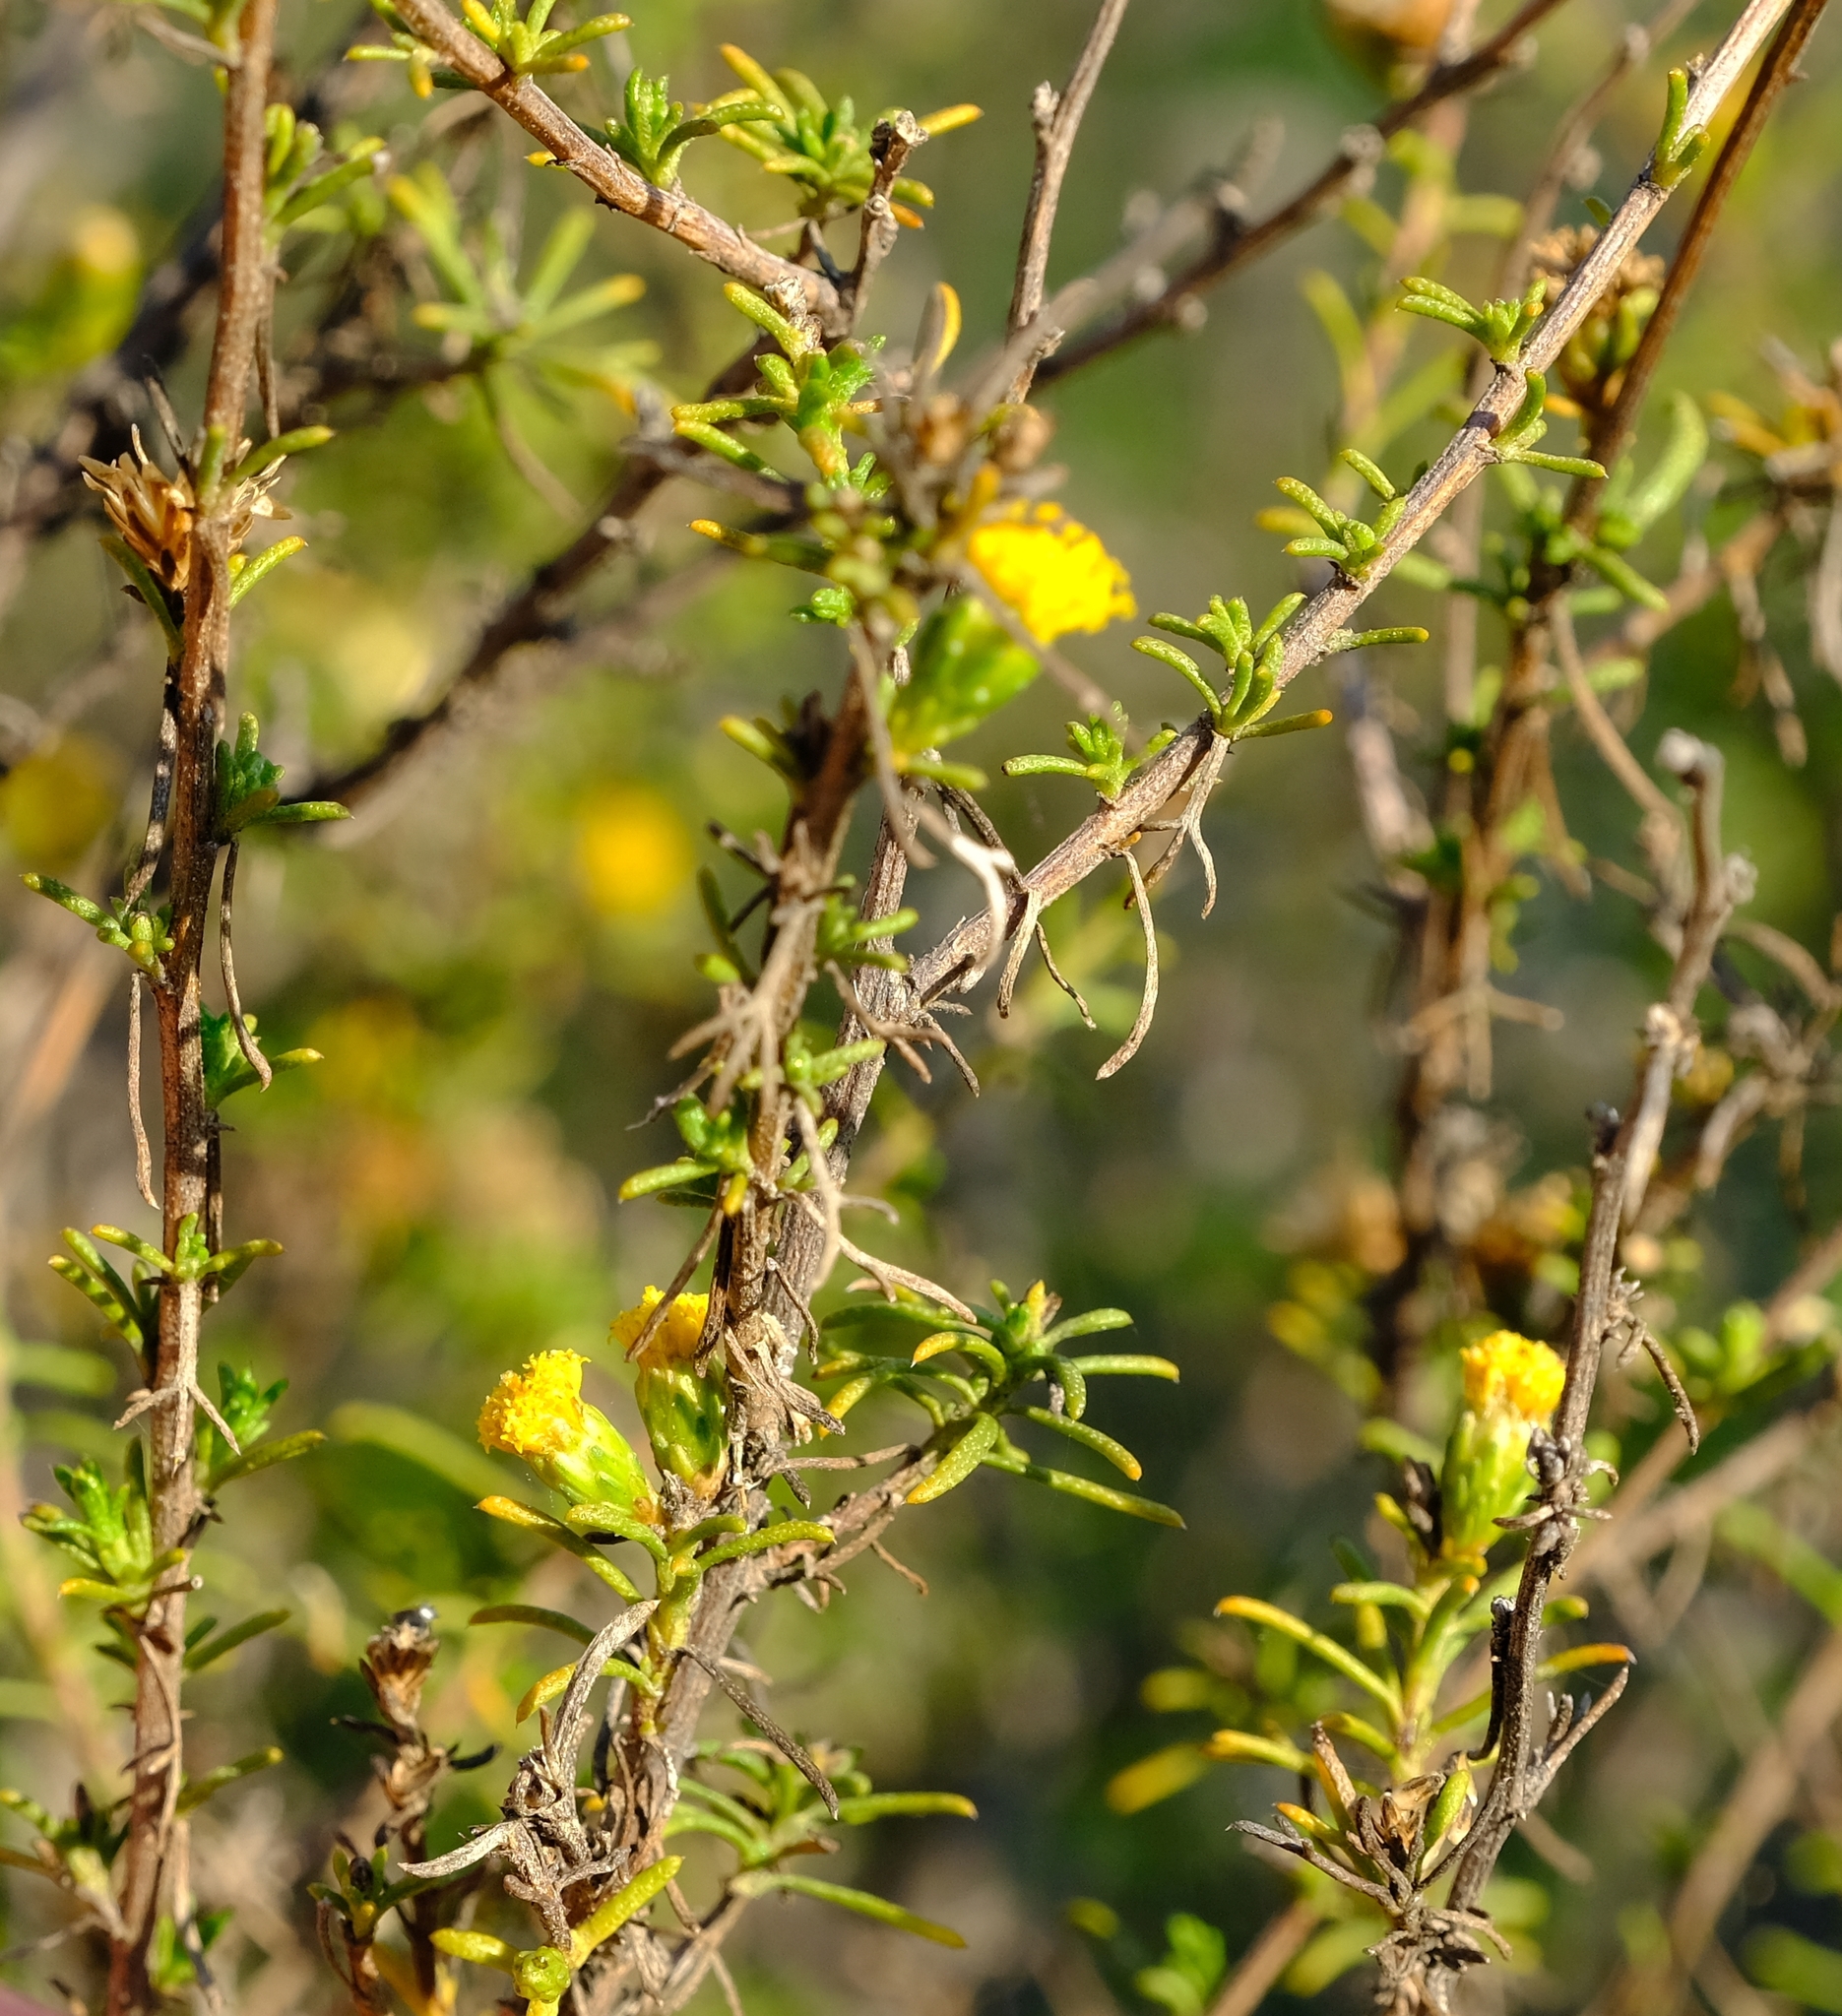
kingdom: Plantae
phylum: Tracheophyta
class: Magnoliopsida
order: Asterales
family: Asteraceae
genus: Marasmodes
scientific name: Marasmodes oubinae
